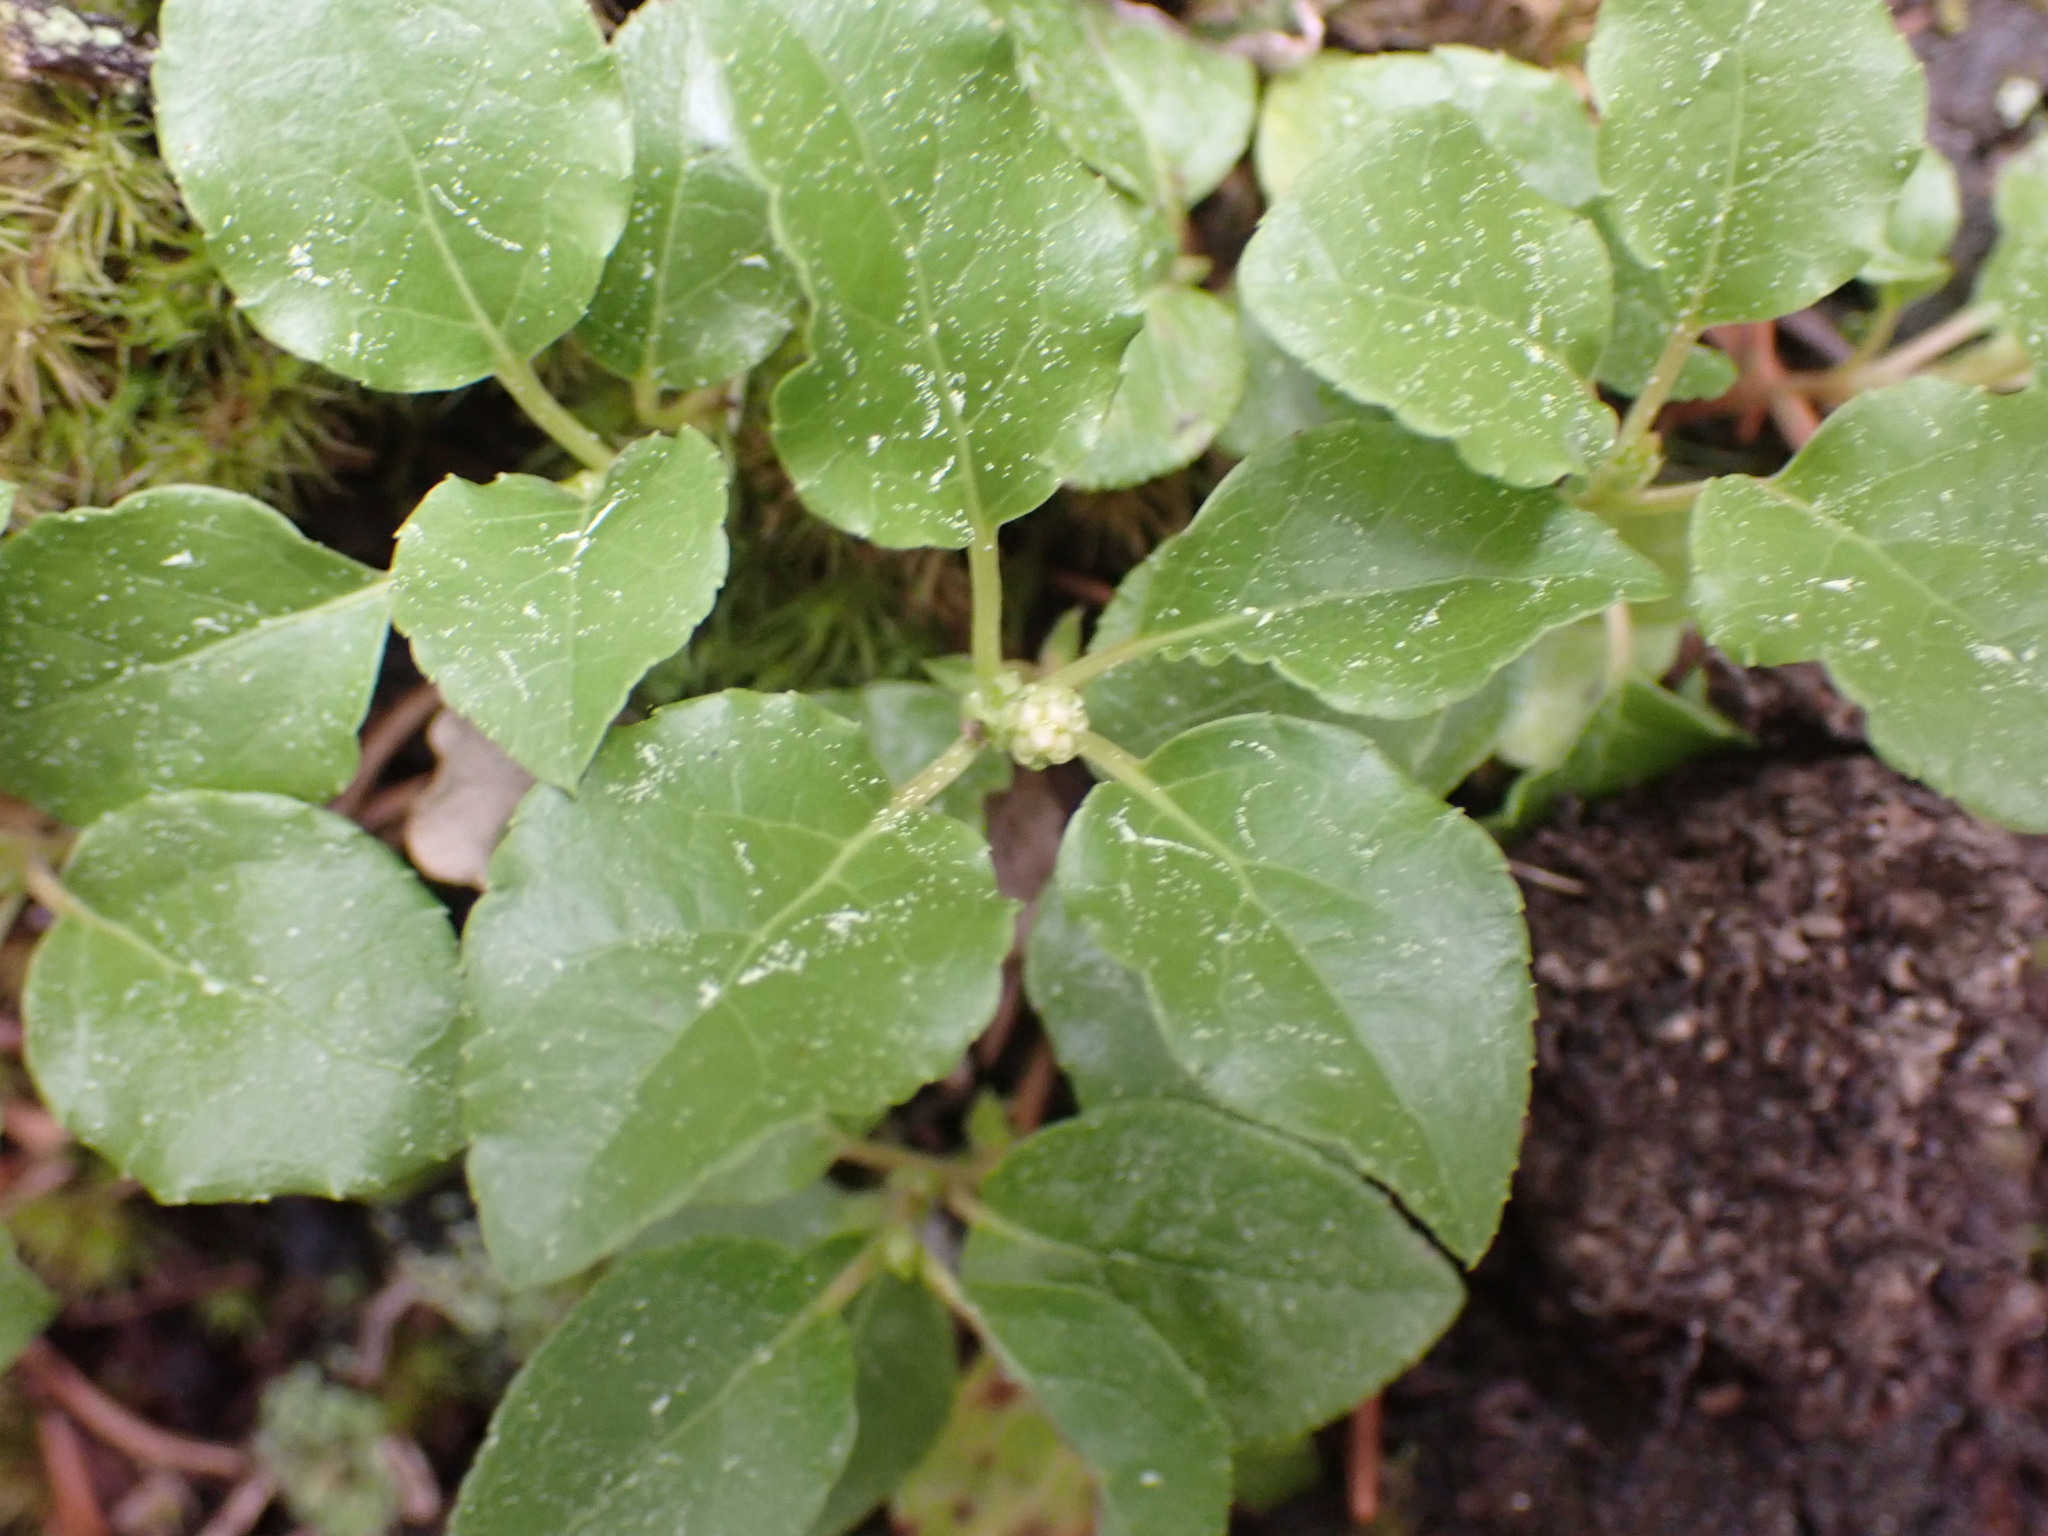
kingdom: Plantae
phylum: Tracheophyta
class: Magnoliopsida
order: Ericales
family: Ericaceae
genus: Orthilia
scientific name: Orthilia secunda
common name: One-sided orthilia
